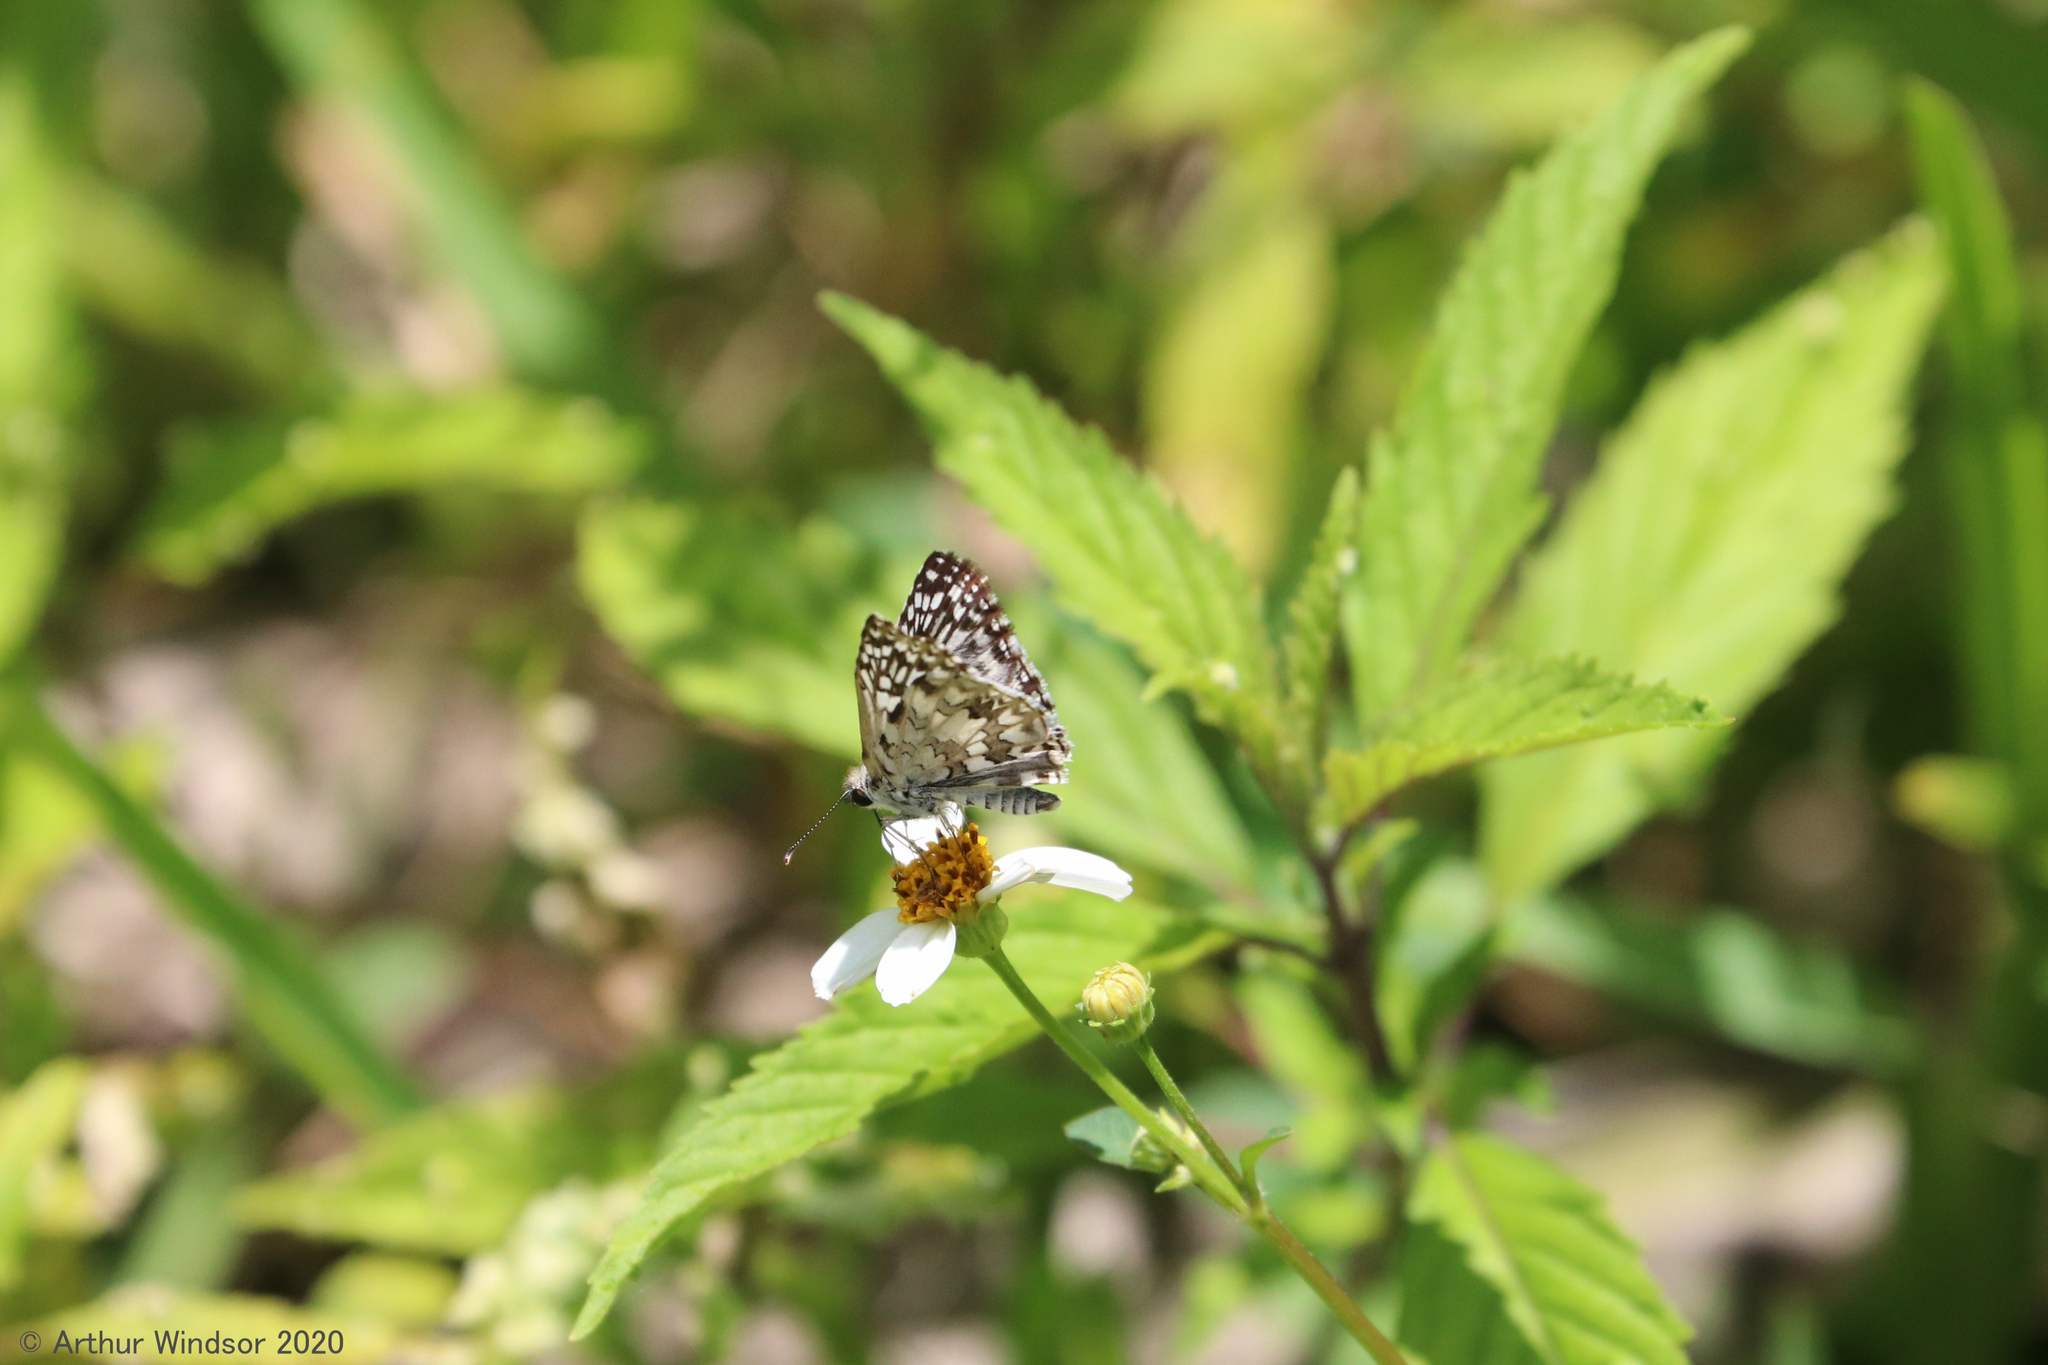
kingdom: Animalia
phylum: Arthropoda
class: Insecta
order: Lepidoptera
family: Hesperiidae
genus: Pyrgus
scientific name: Pyrgus oileus
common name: Tropical checkered-skipper
